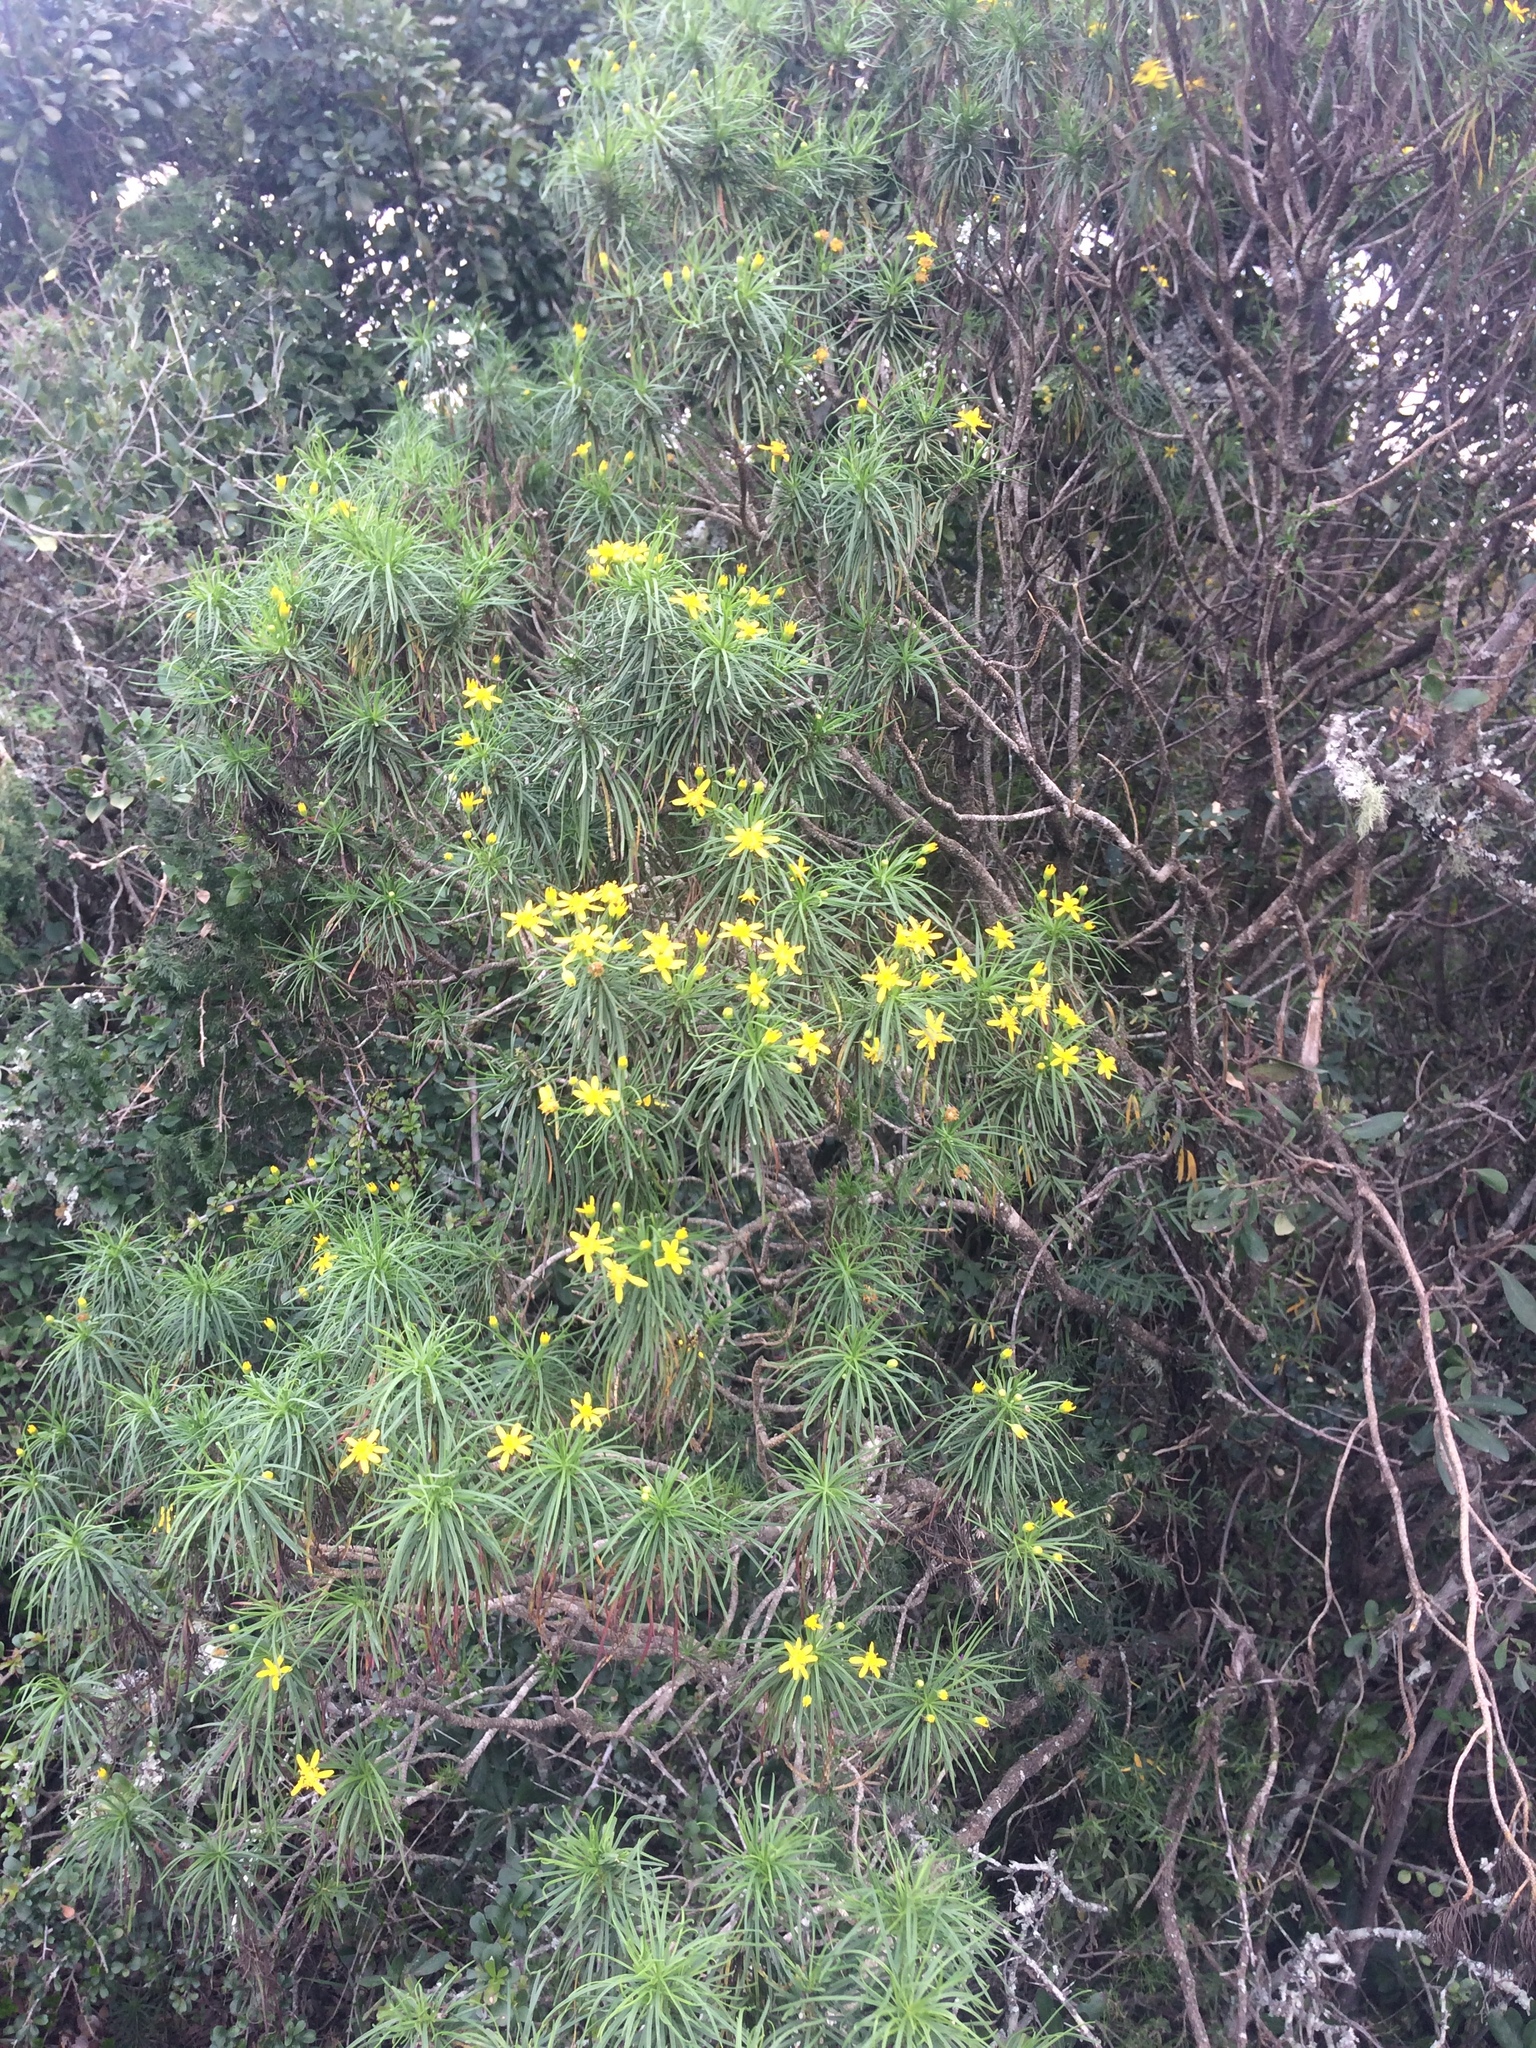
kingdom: Plantae
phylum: Tracheophyta
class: Magnoliopsida
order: Asterales
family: Asteraceae
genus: Euryops
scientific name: Euryops brevipapposus
